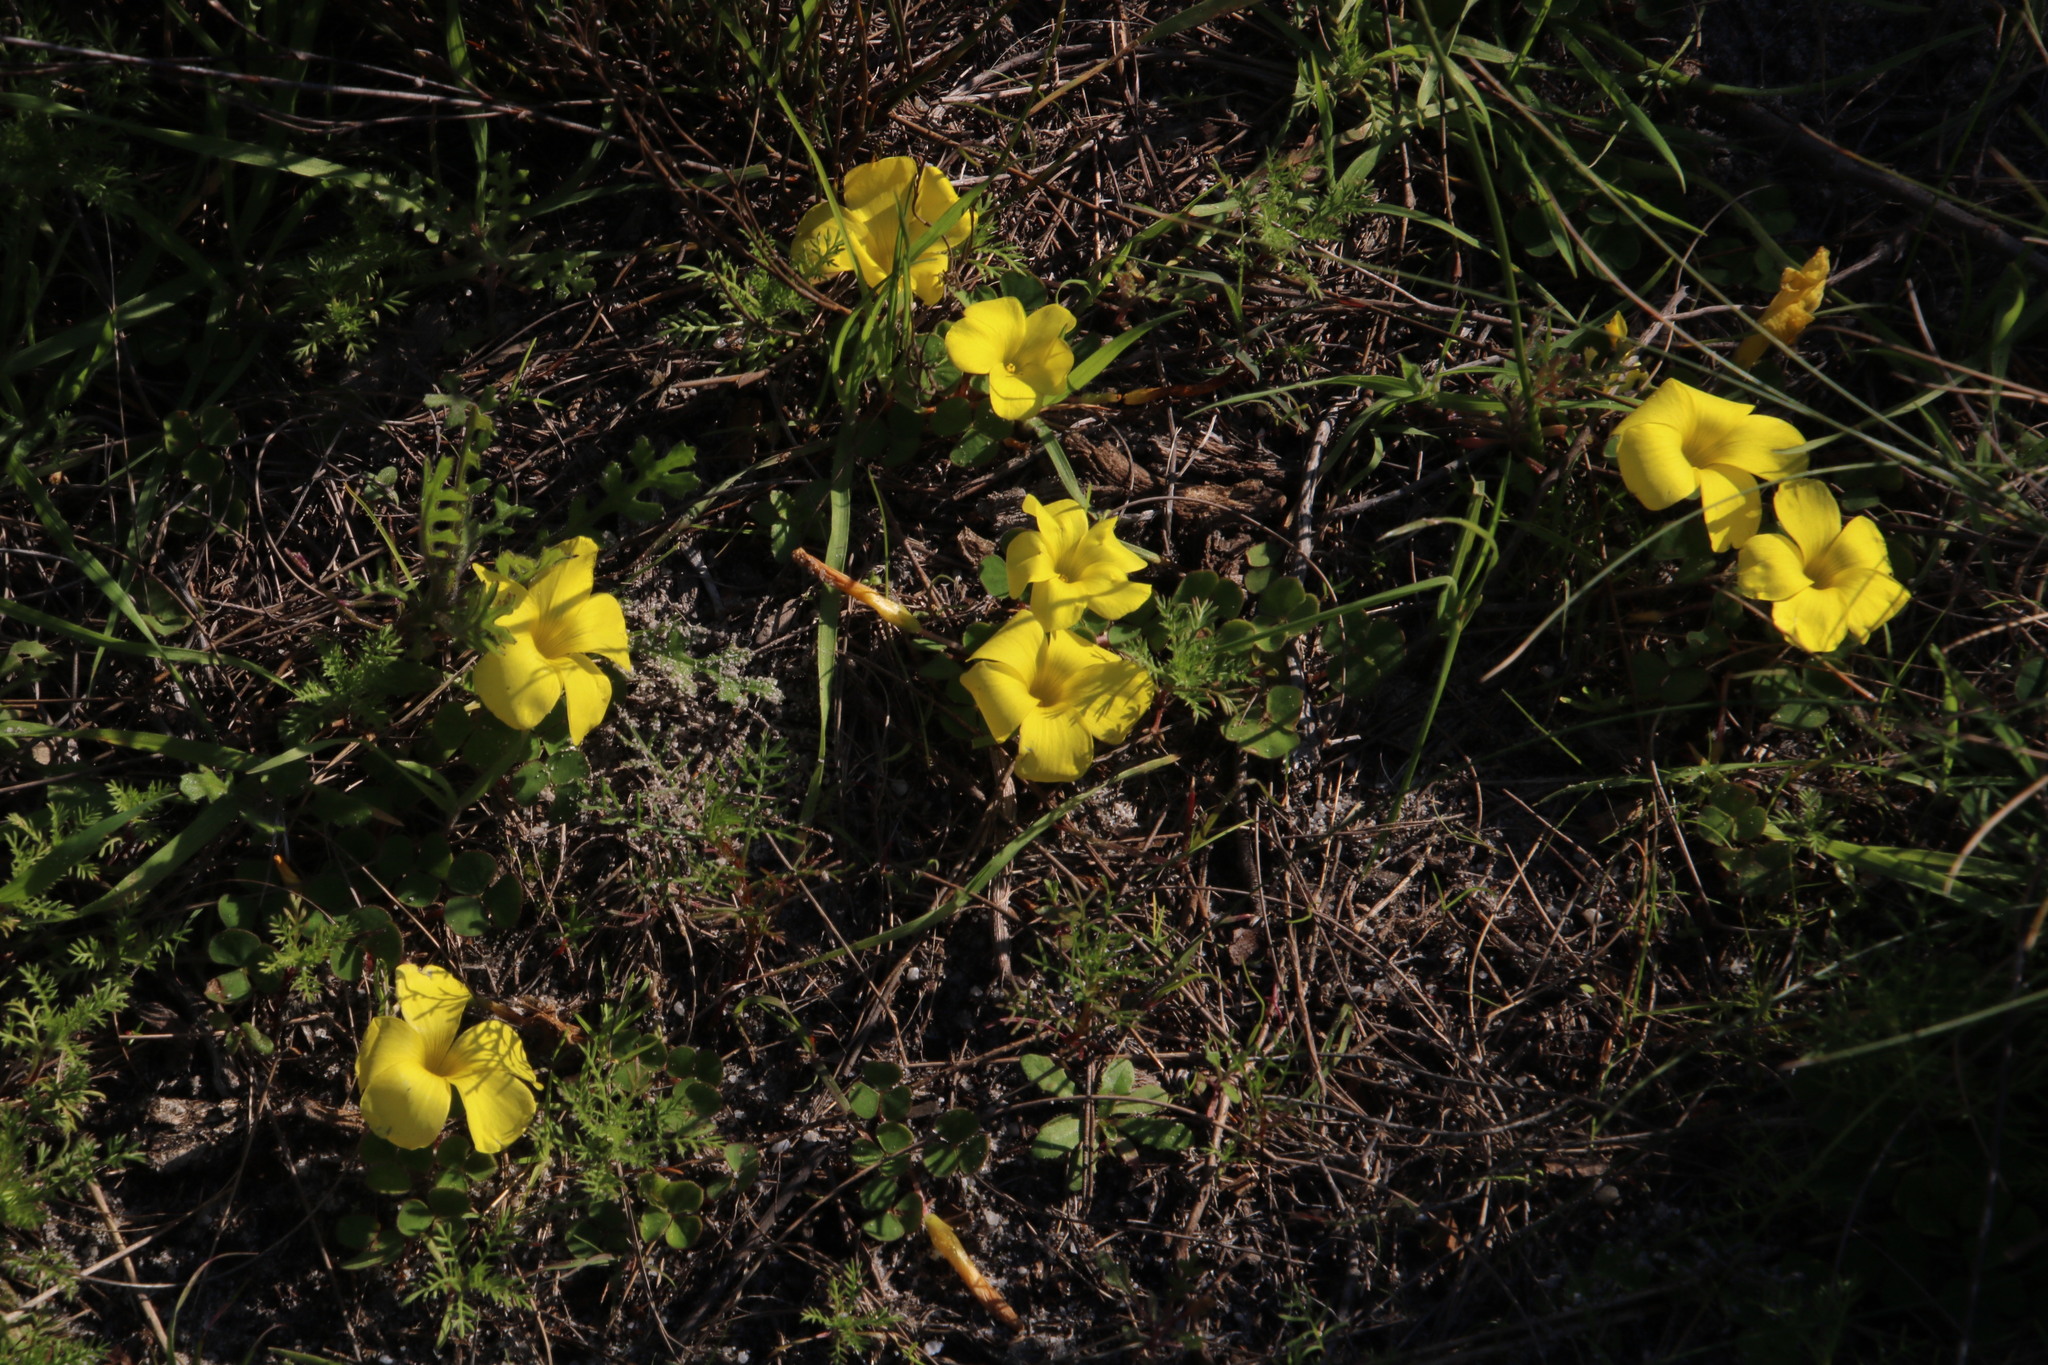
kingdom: Plantae
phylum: Tracheophyta
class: Magnoliopsida
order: Oxalidales
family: Oxalidaceae
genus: Oxalis
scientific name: Oxalis luteola
